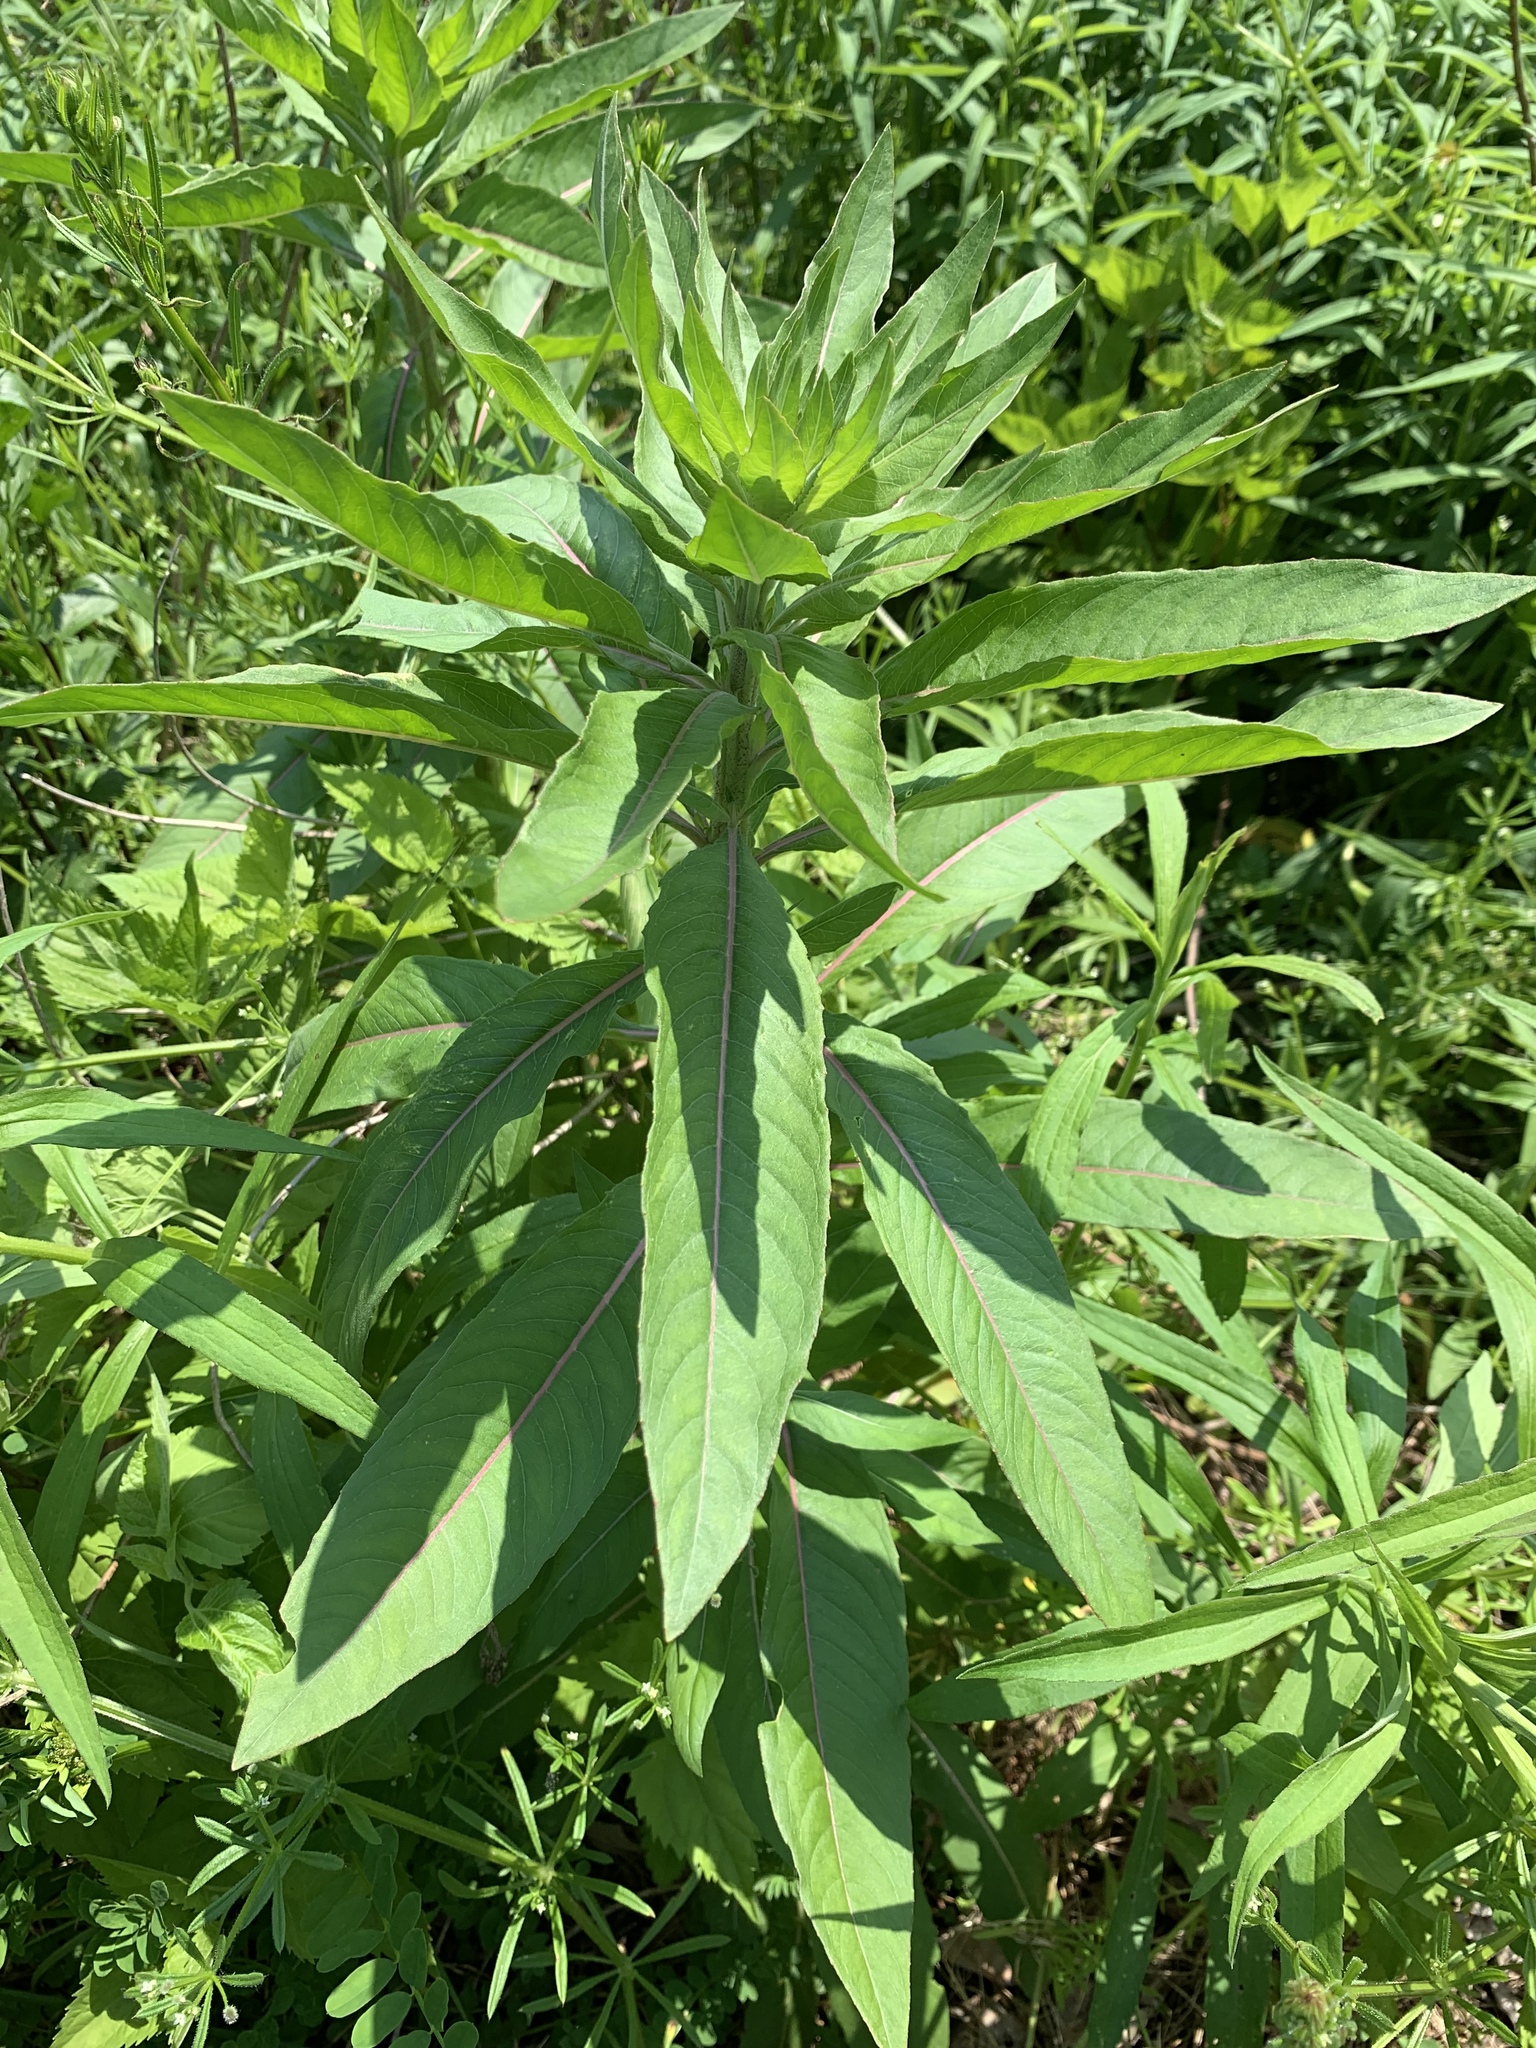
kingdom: Plantae
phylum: Tracheophyta
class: Magnoliopsida
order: Myrtales
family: Onagraceae
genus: Oenothera
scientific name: Oenothera biennis
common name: Common evening-primrose
